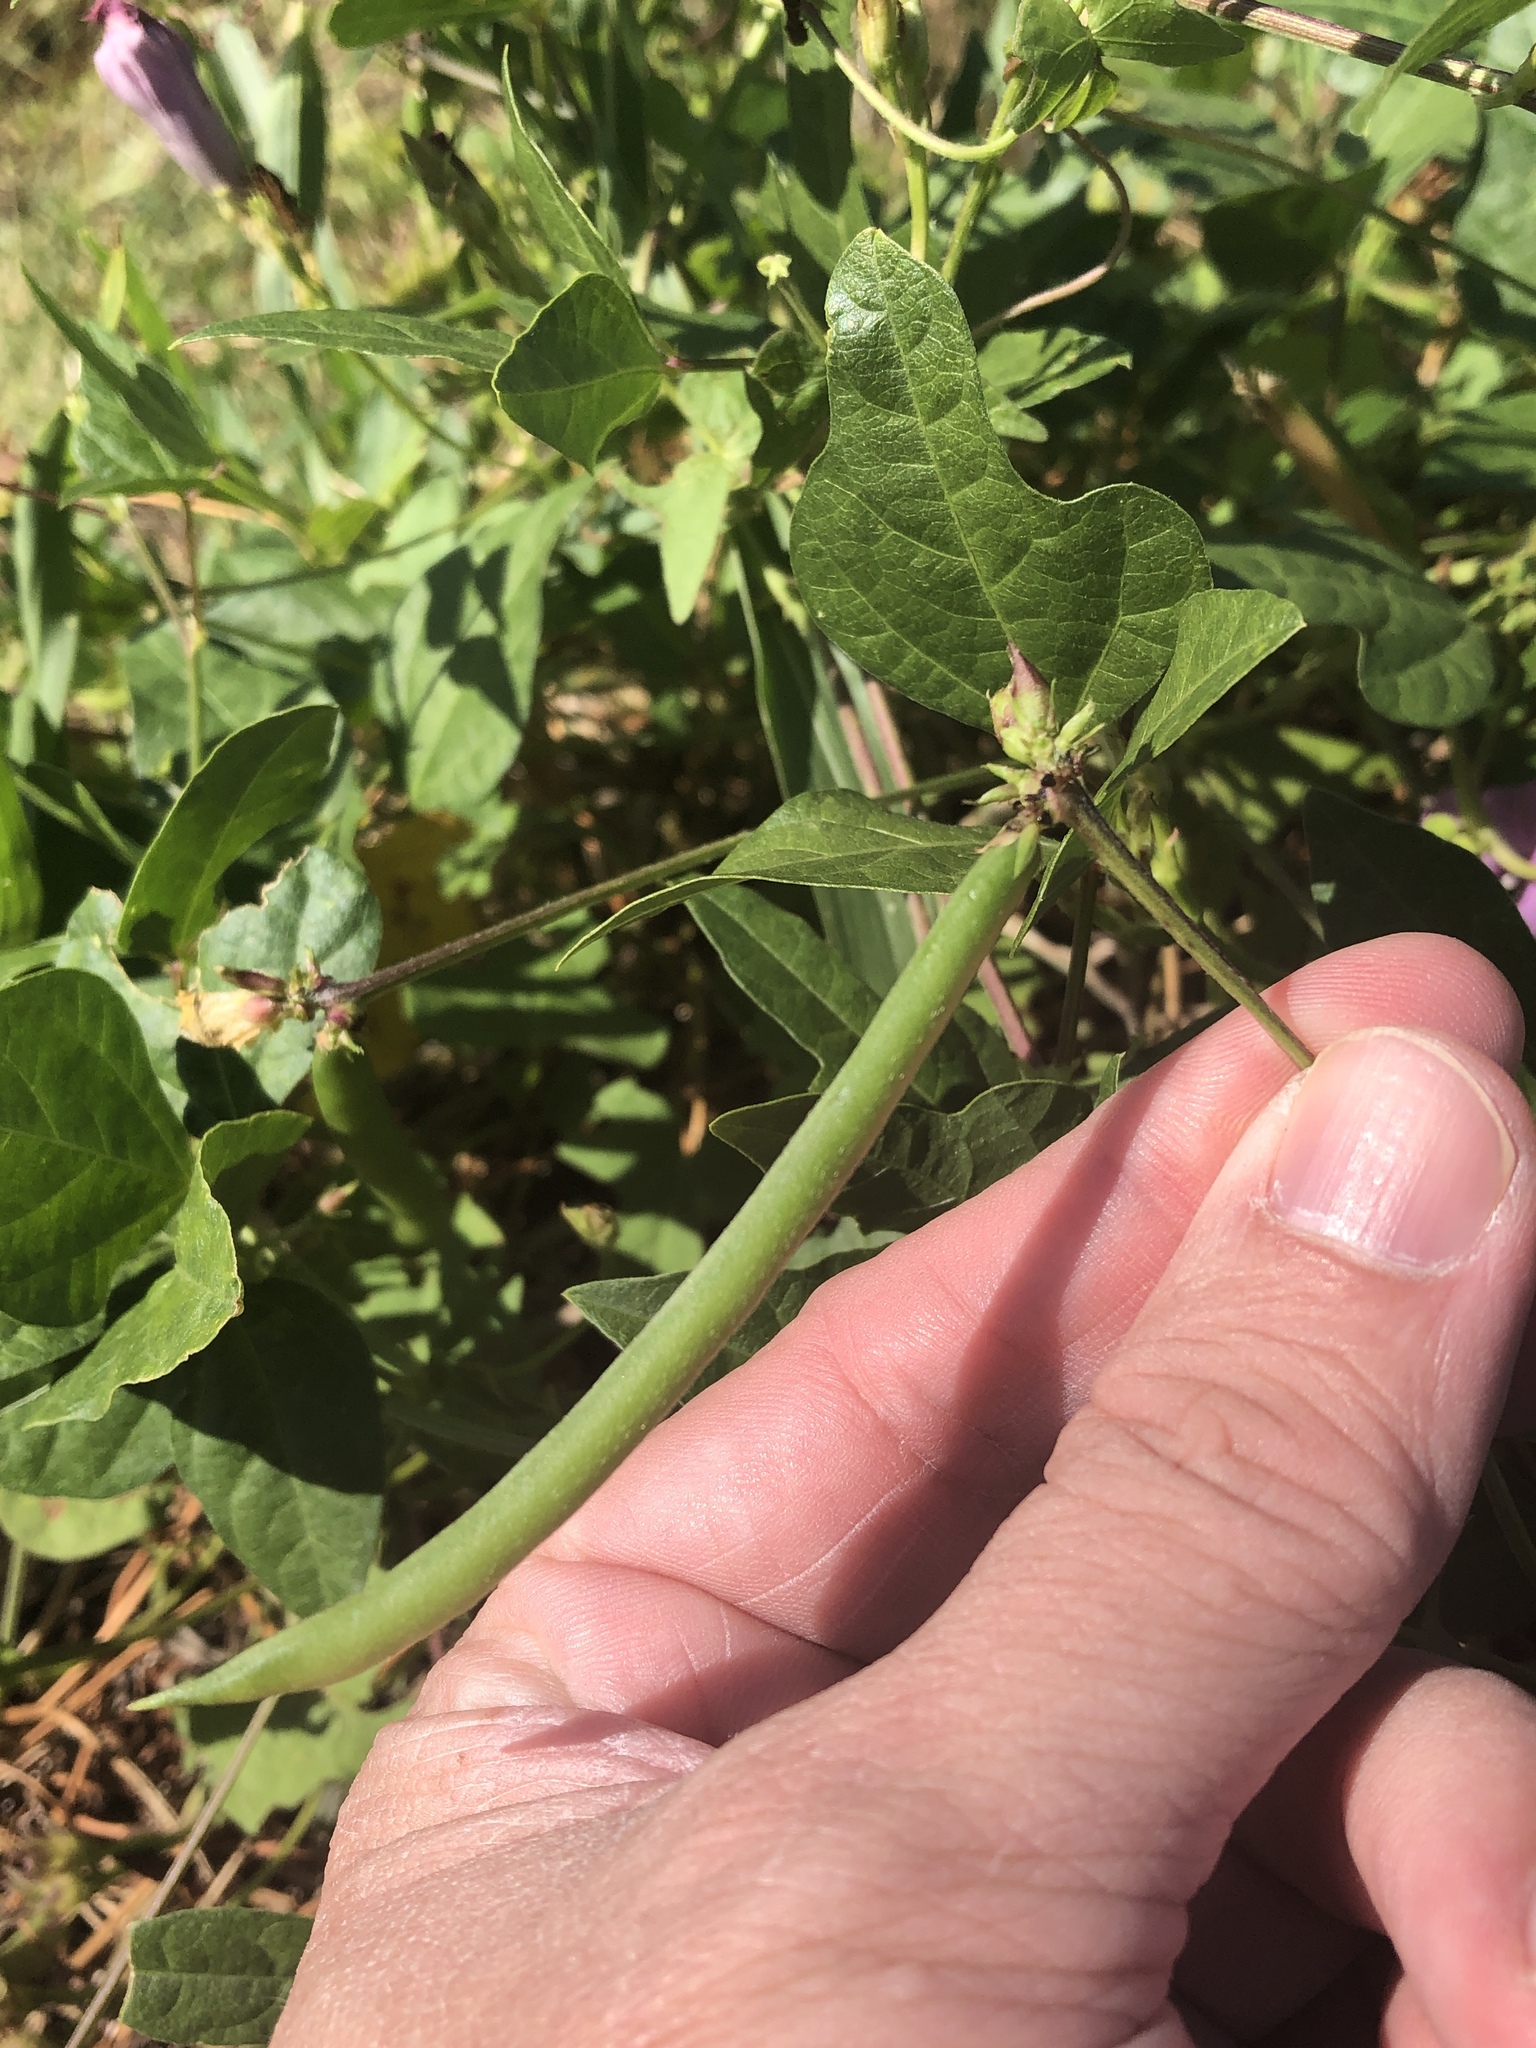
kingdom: Plantae
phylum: Tracheophyta
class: Magnoliopsida
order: Fabales
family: Fabaceae
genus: Strophostyles
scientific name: Strophostyles helvola
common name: Trailing wild bean
